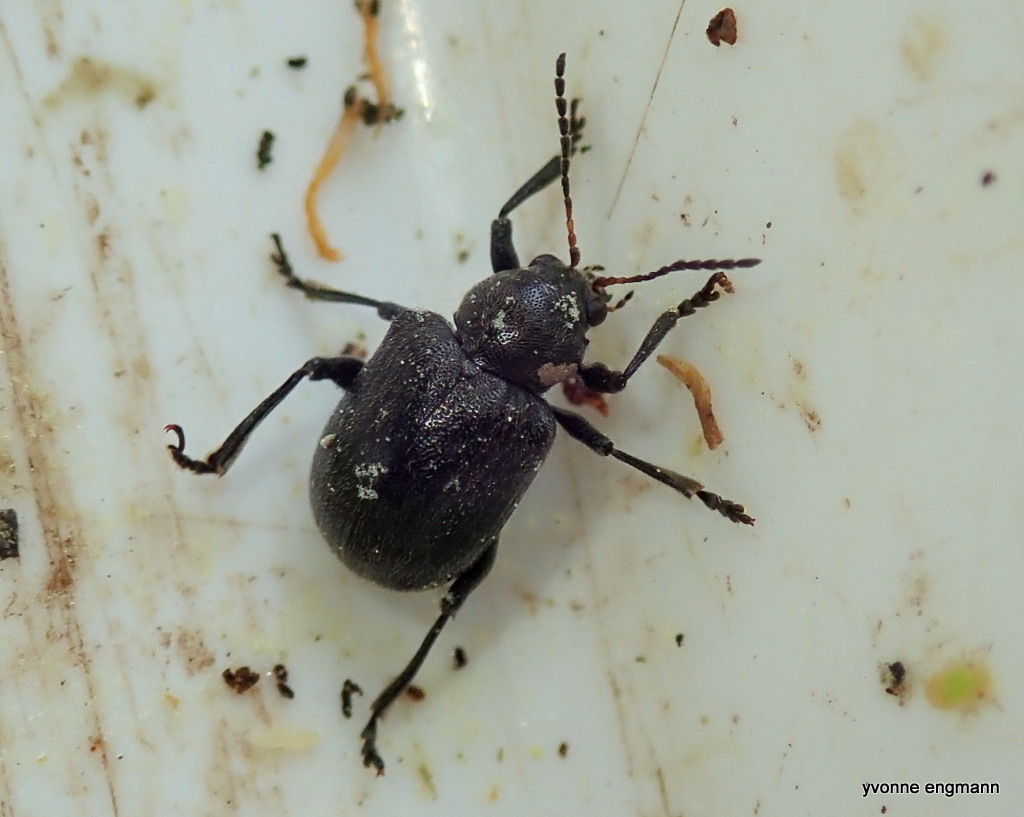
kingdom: Animalia
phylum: Arthropoda
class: Insecta
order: Coleoptera
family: Chrysomelidae
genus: Bromius
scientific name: Bromius obscurus
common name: Western grape rootworm
